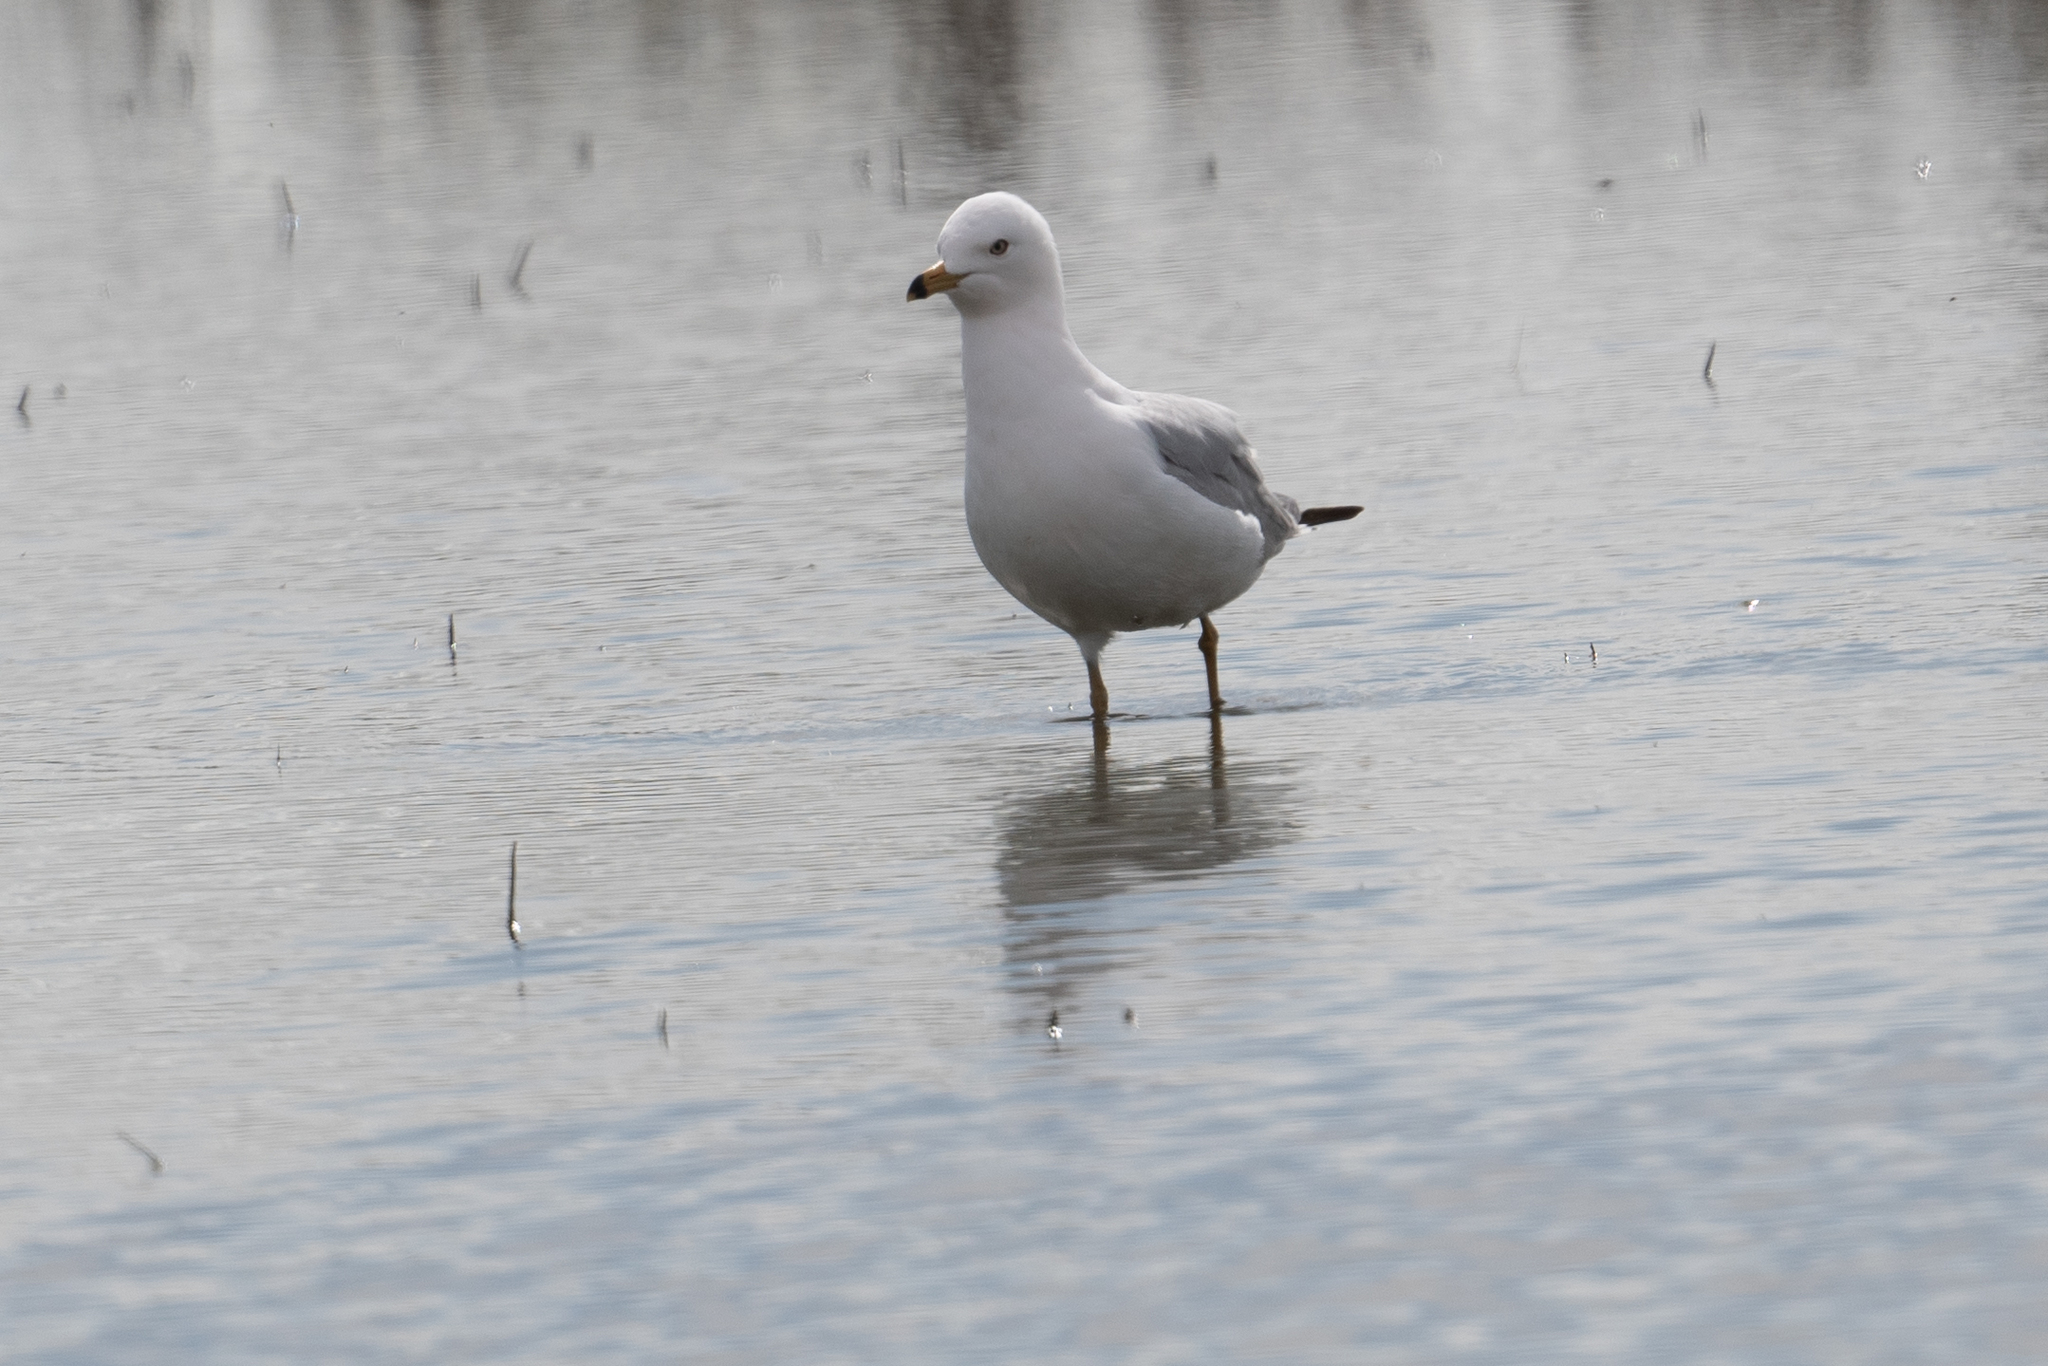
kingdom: Animalia
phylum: Chordata
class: Aves
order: Charadriiformes
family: Laridae
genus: Larus
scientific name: Larus delawarensis
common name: Ring-billed gull
